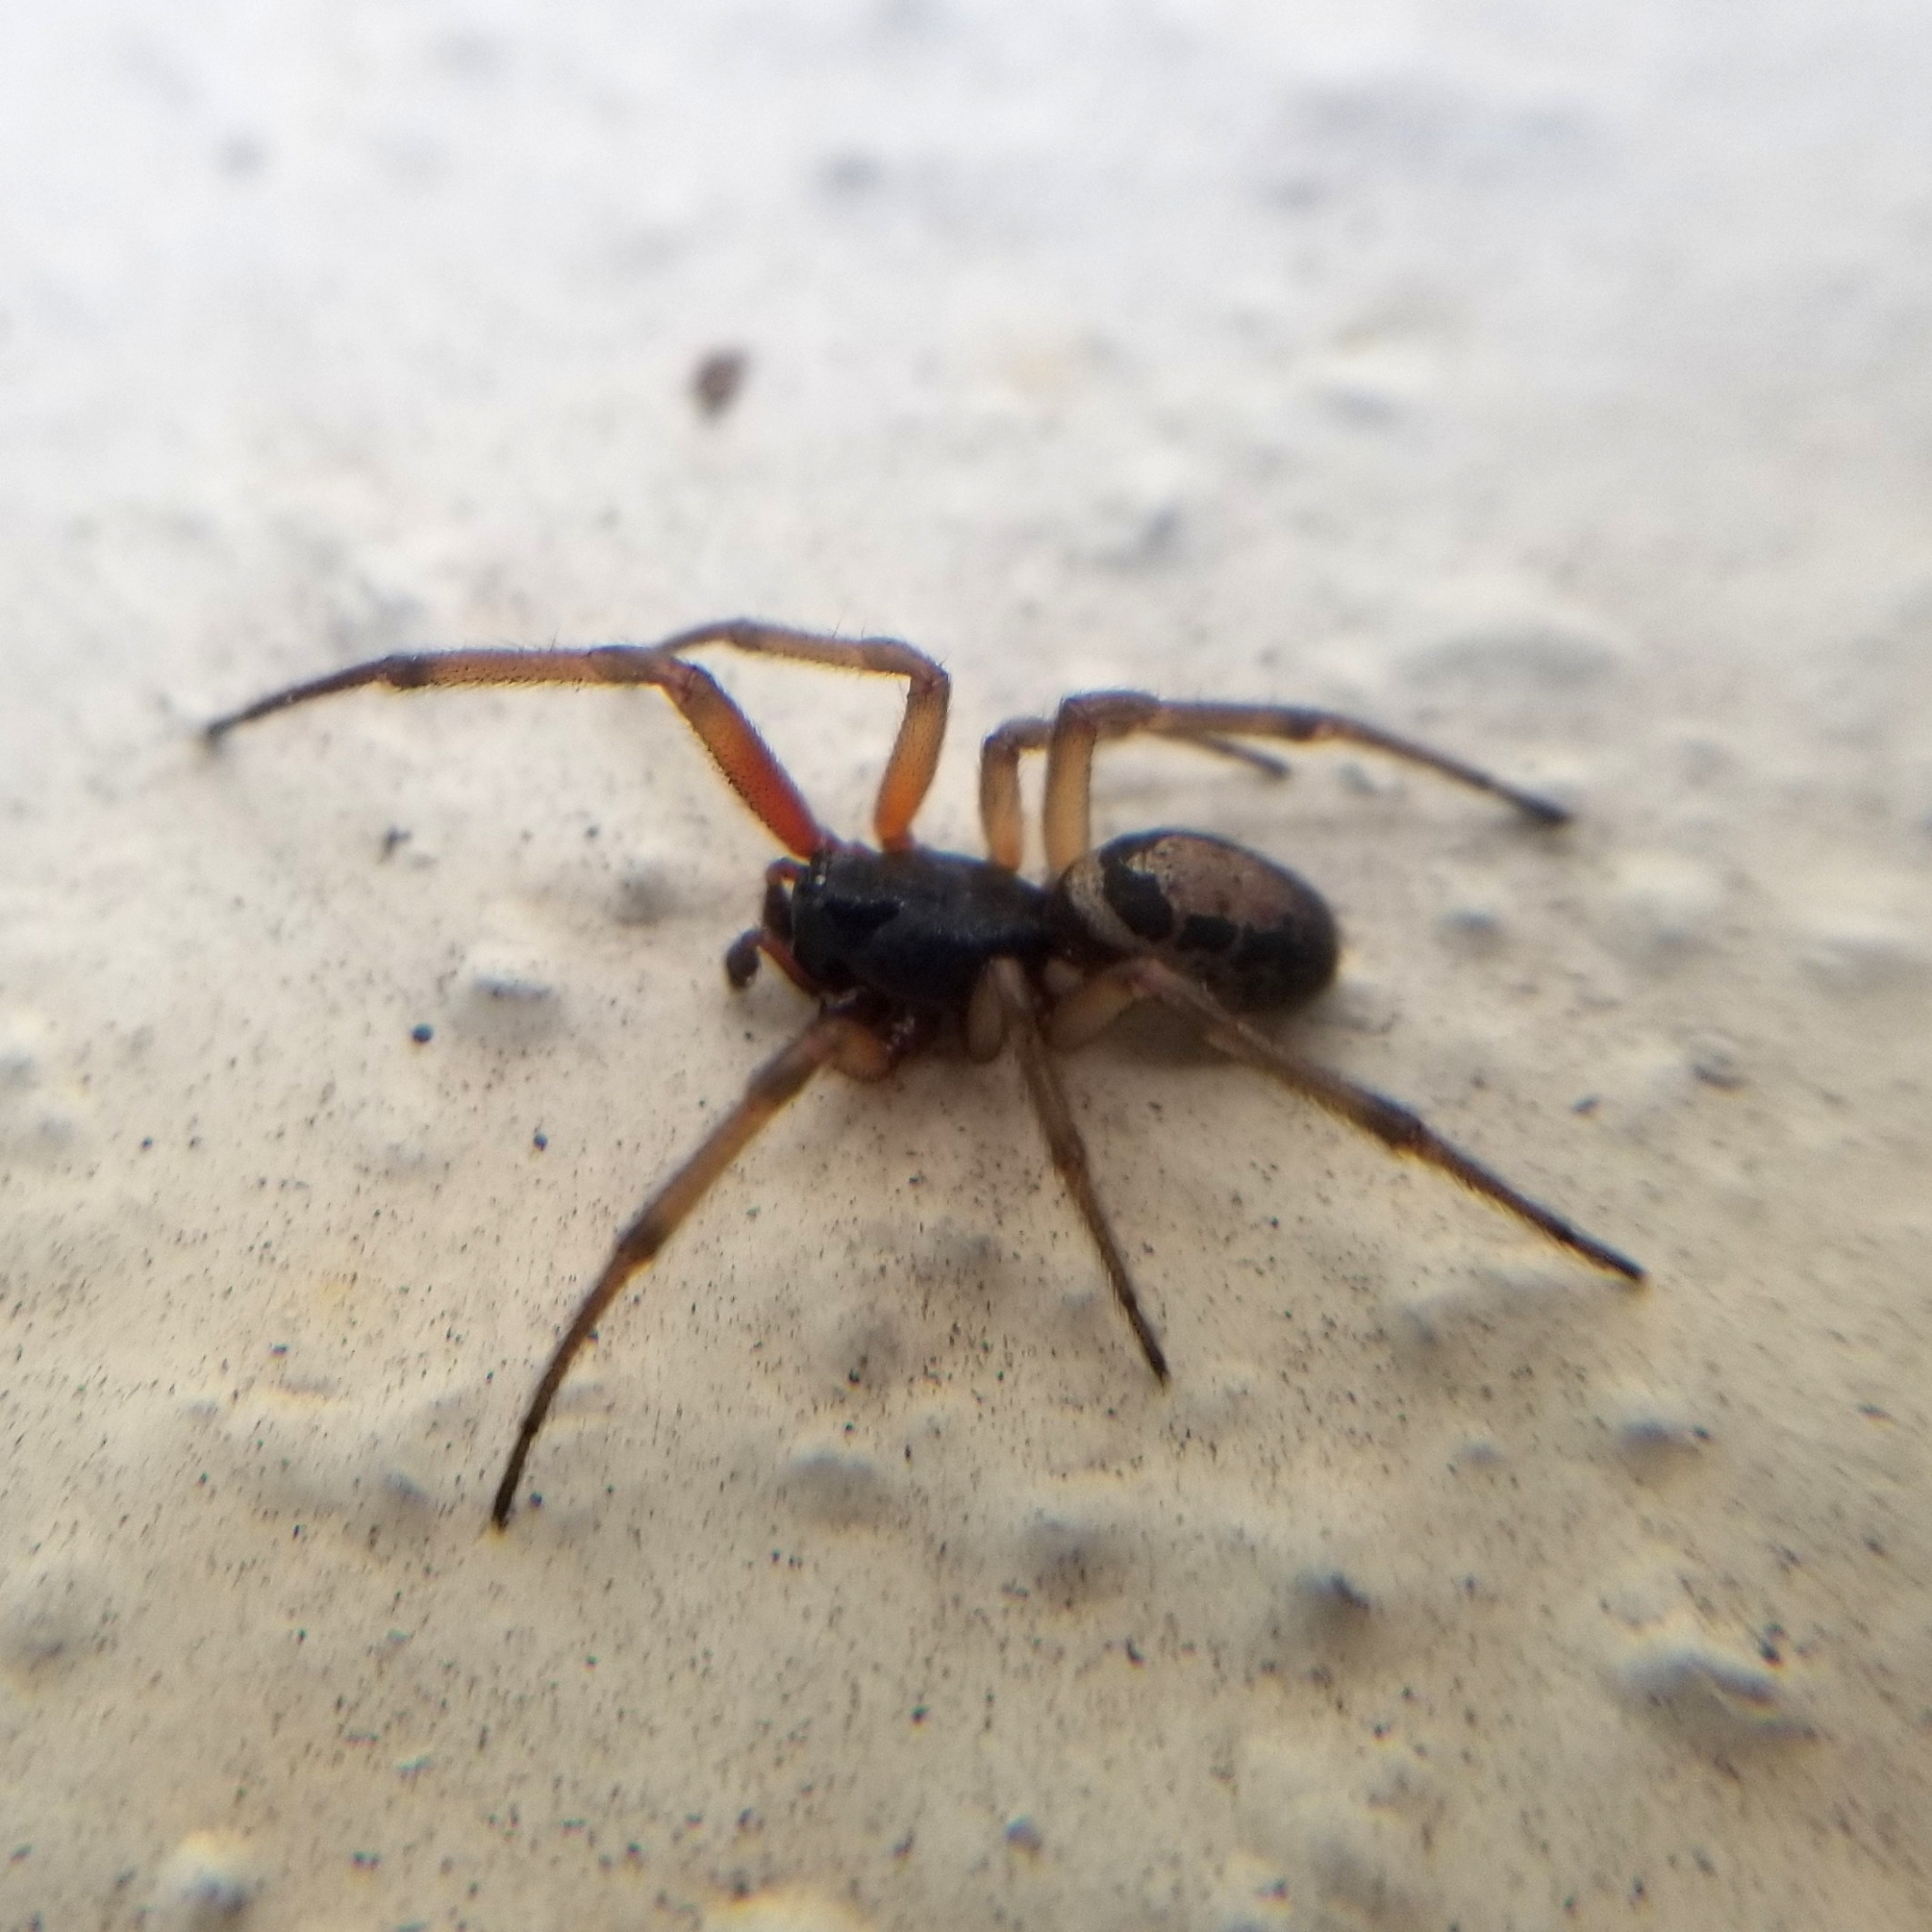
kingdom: Animalia
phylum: Arthropoda
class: Arachnida
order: Araneae
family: Theridiidae
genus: Steatoda
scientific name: Steatoda nobilis
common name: Cobweb weaver
